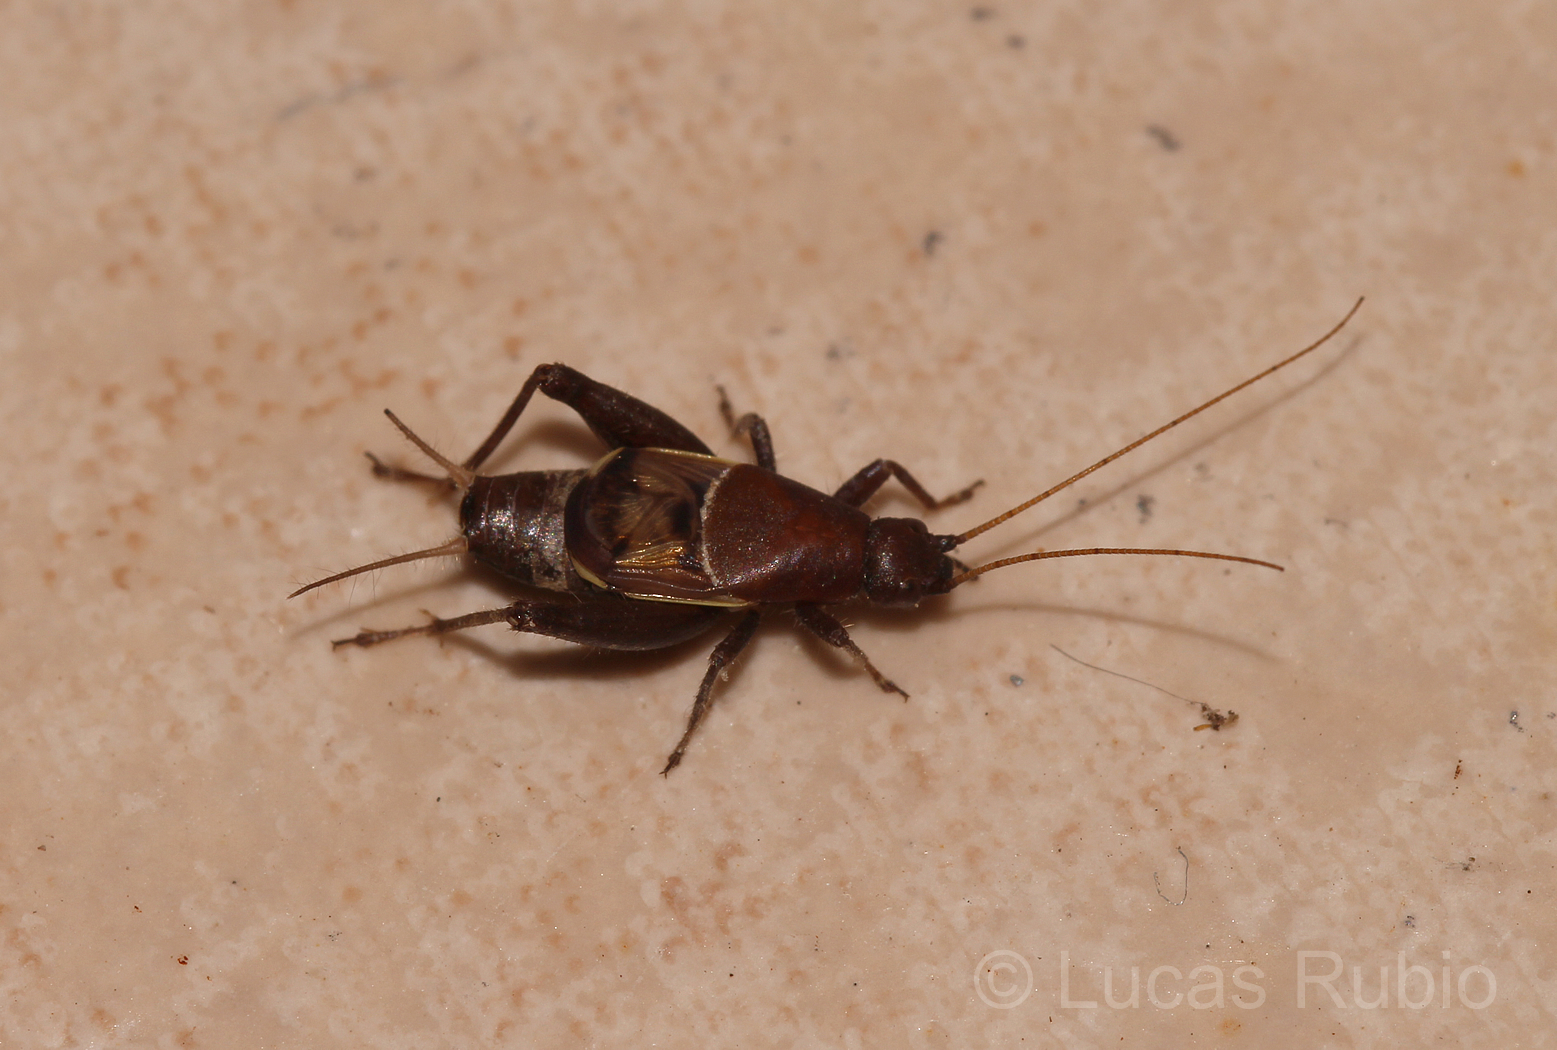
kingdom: Animalia
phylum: Arthropoda
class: Insecta
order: Orthoptera
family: Mogoplistidae
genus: Ornebius
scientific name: Ornebius alatus
